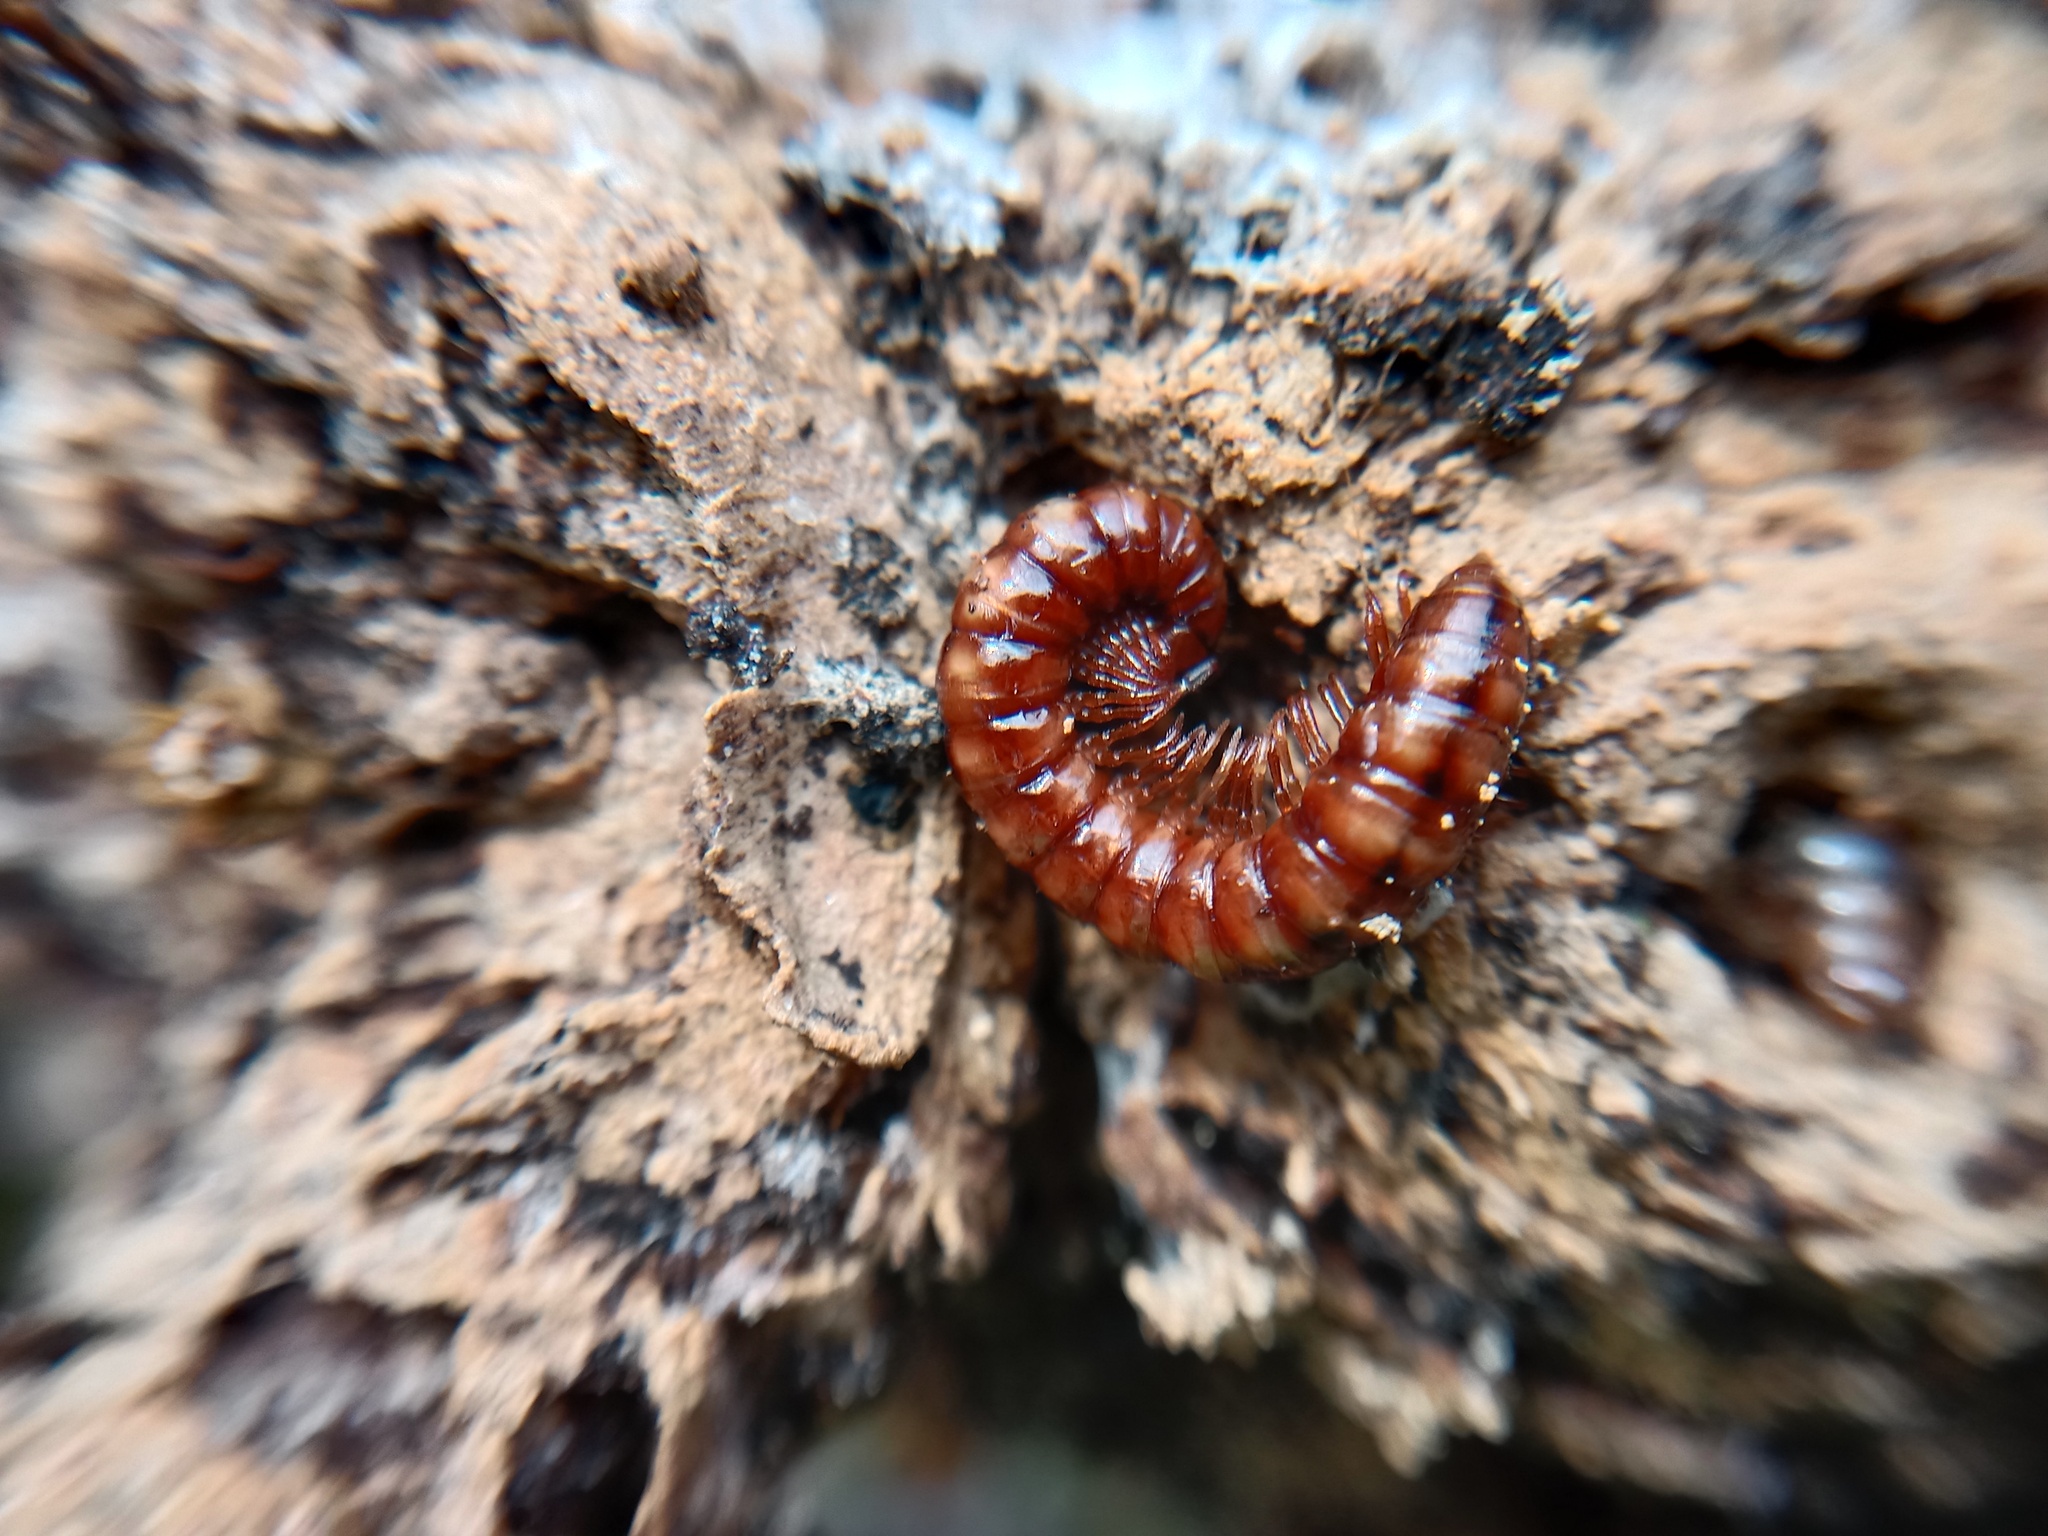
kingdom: Animalia
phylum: Arthropoda
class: Diplopoda
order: Polydesmida
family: Paradoxosomatidae
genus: Strongylosoma
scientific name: Strongylosoma stigmatosus
